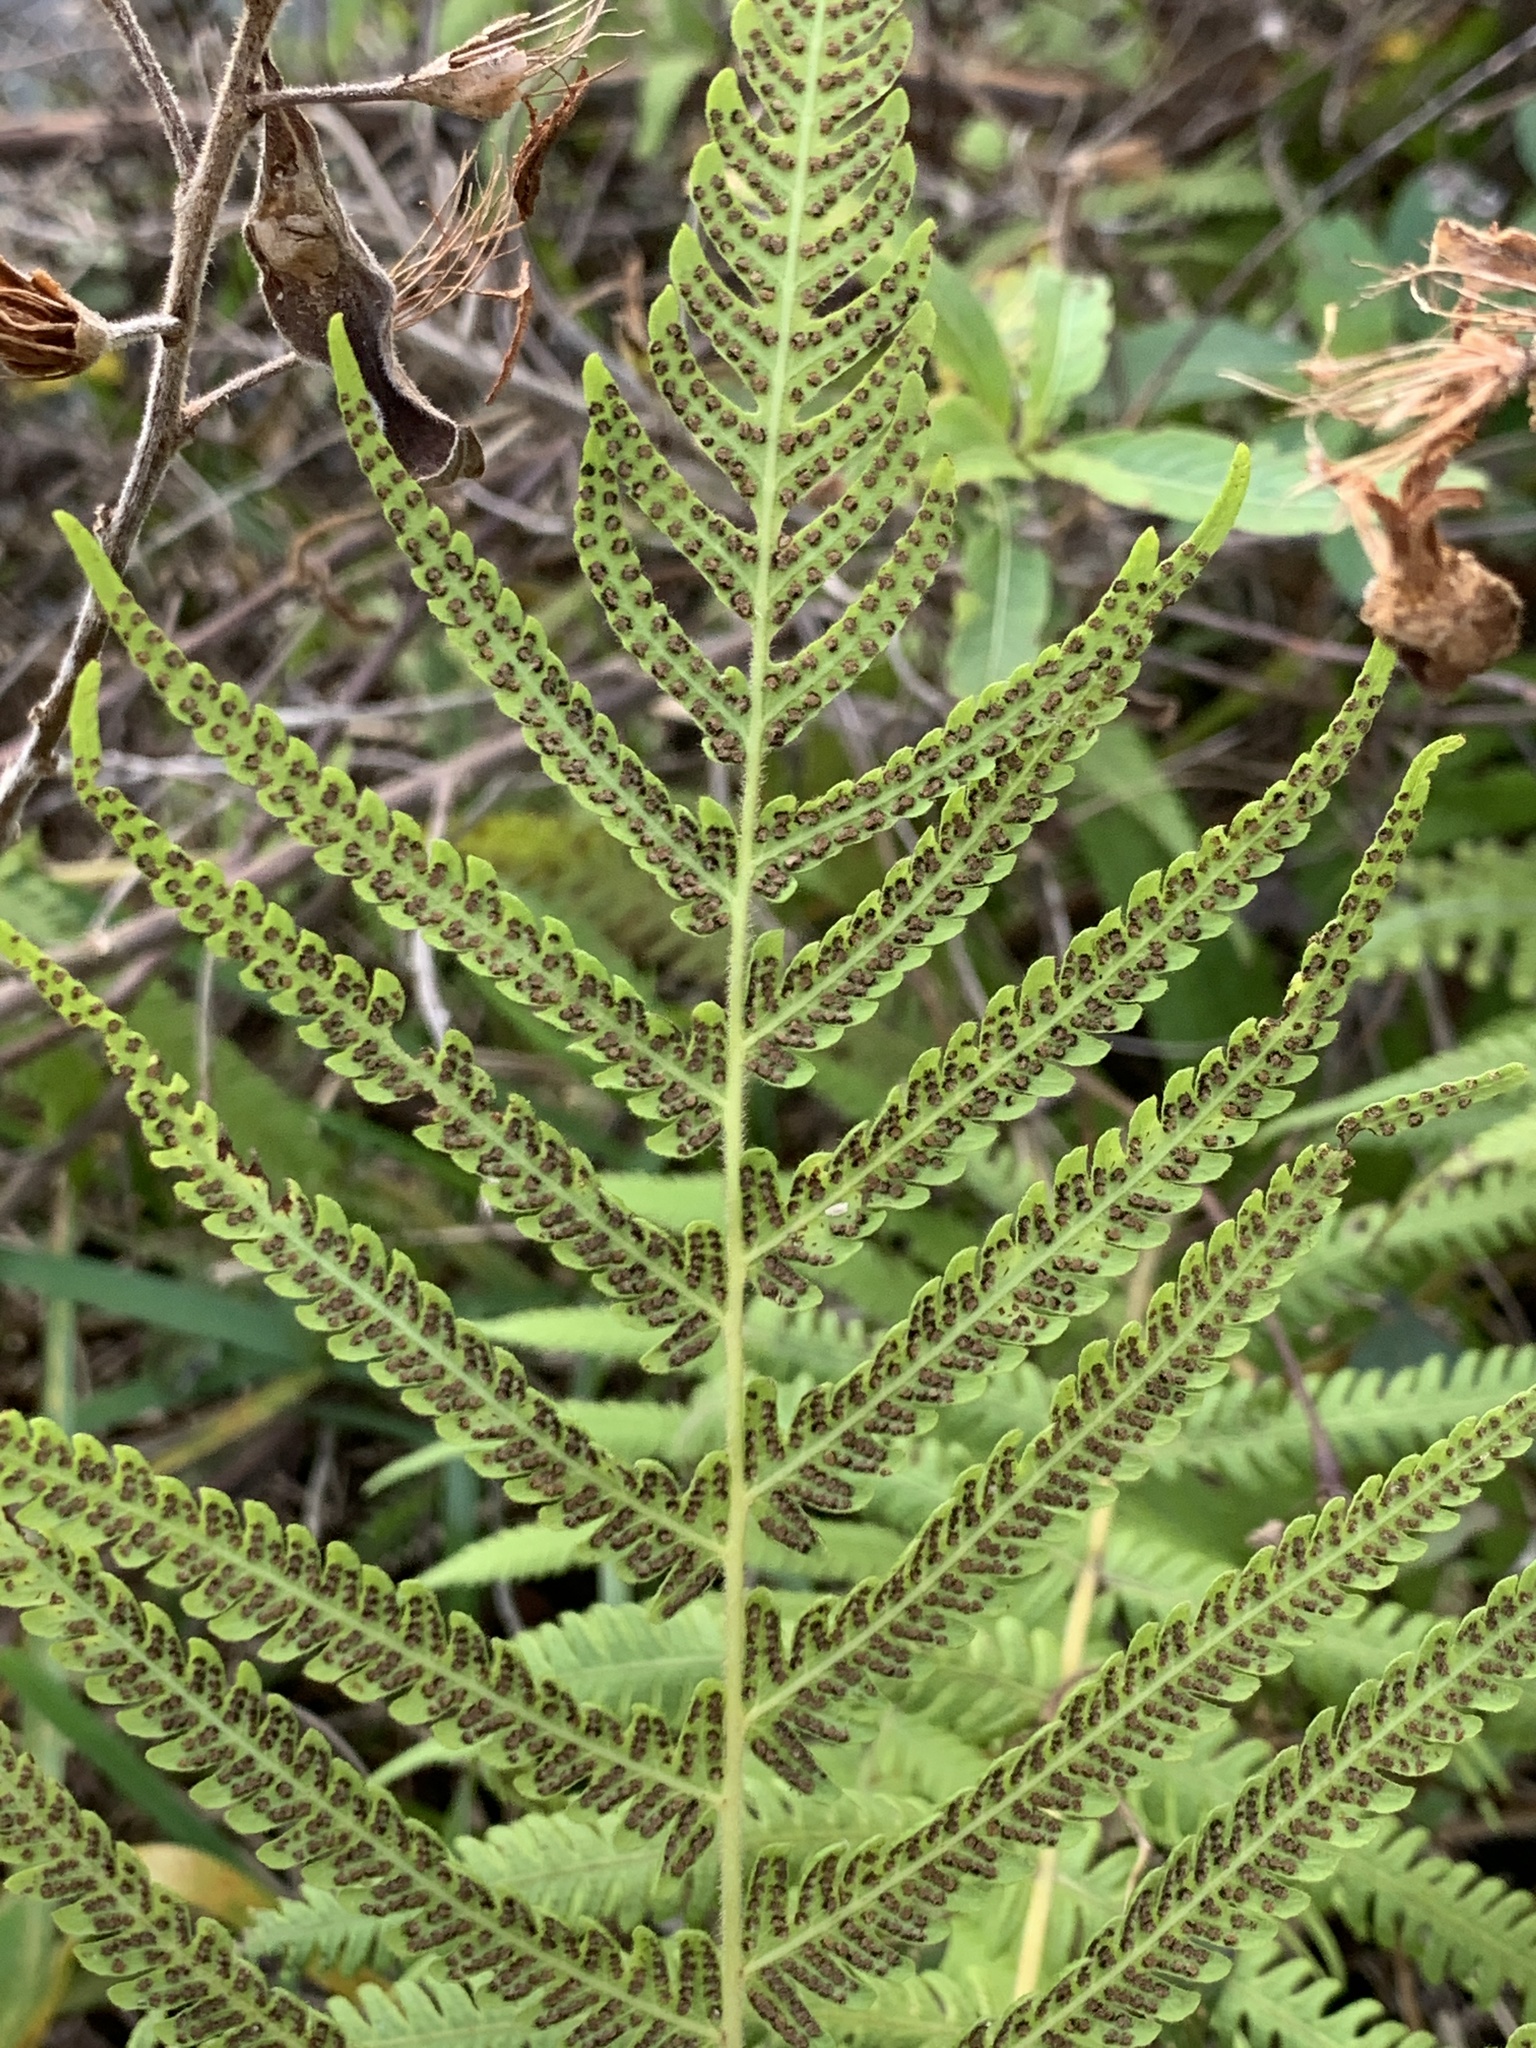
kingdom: Plantae
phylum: Tracheophyta
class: Polypodiopsida
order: Polypodiales
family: Thelypteridaceae
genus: Pelazoneuron
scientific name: Pelazoneuron kunthii
